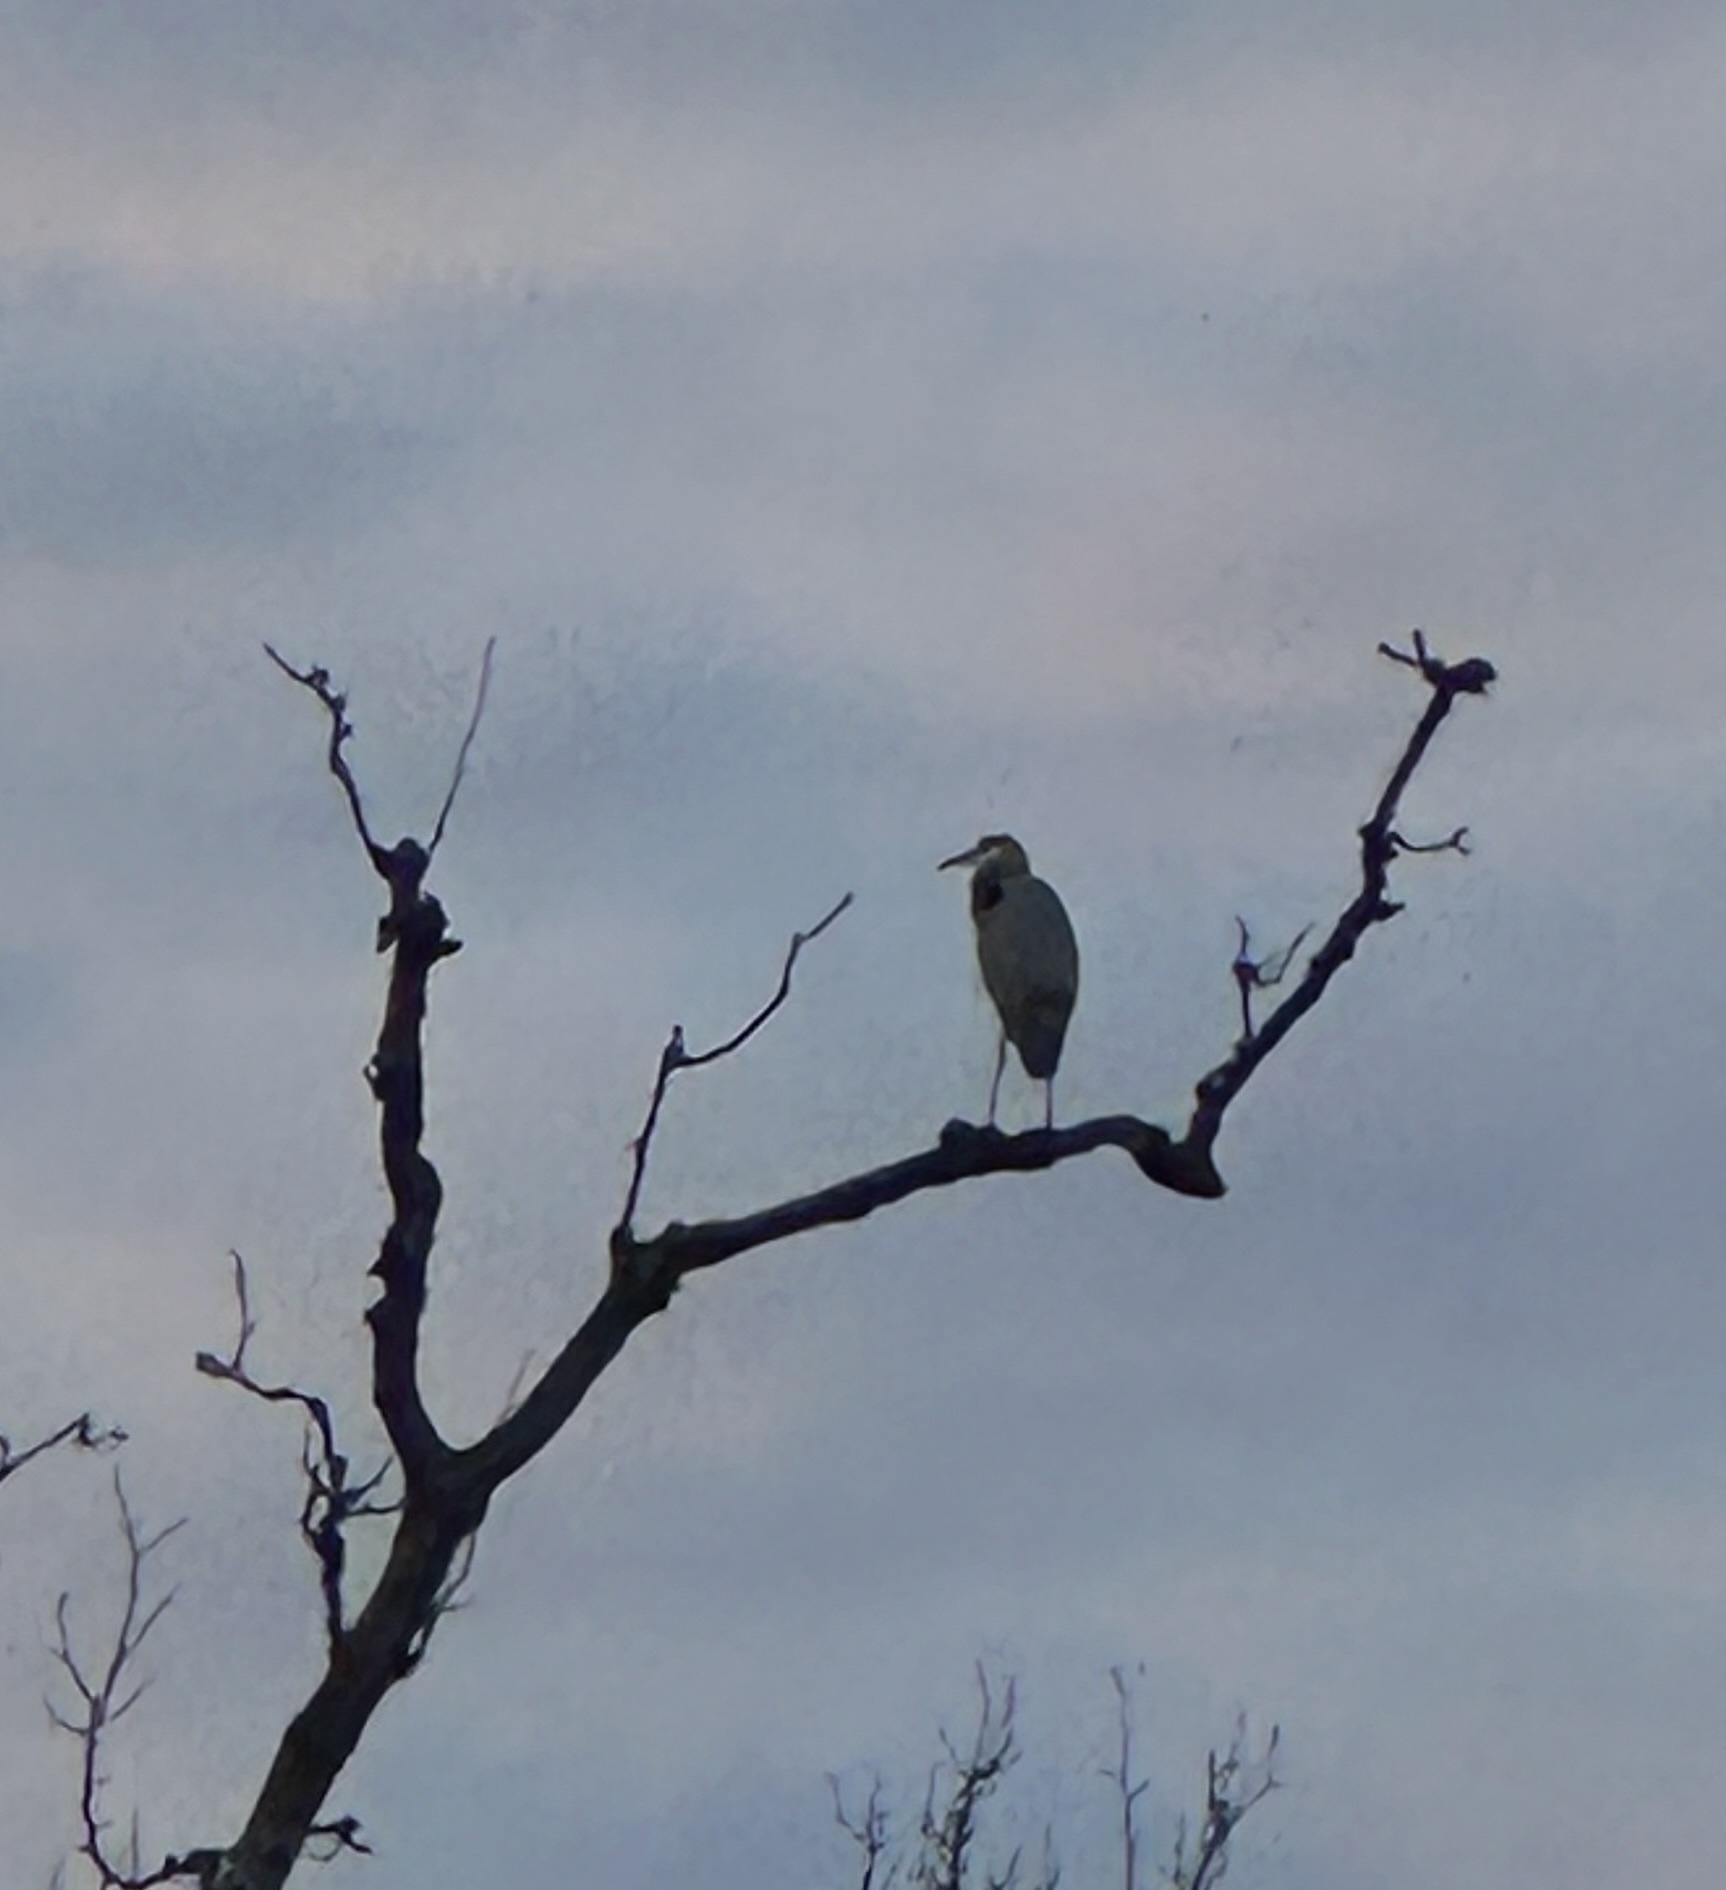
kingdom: Animalia
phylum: Chordata
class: Aves
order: Pelecaniformes
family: Ardeidae
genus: Ardea
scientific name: Ardea herodias
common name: Great blue heron
